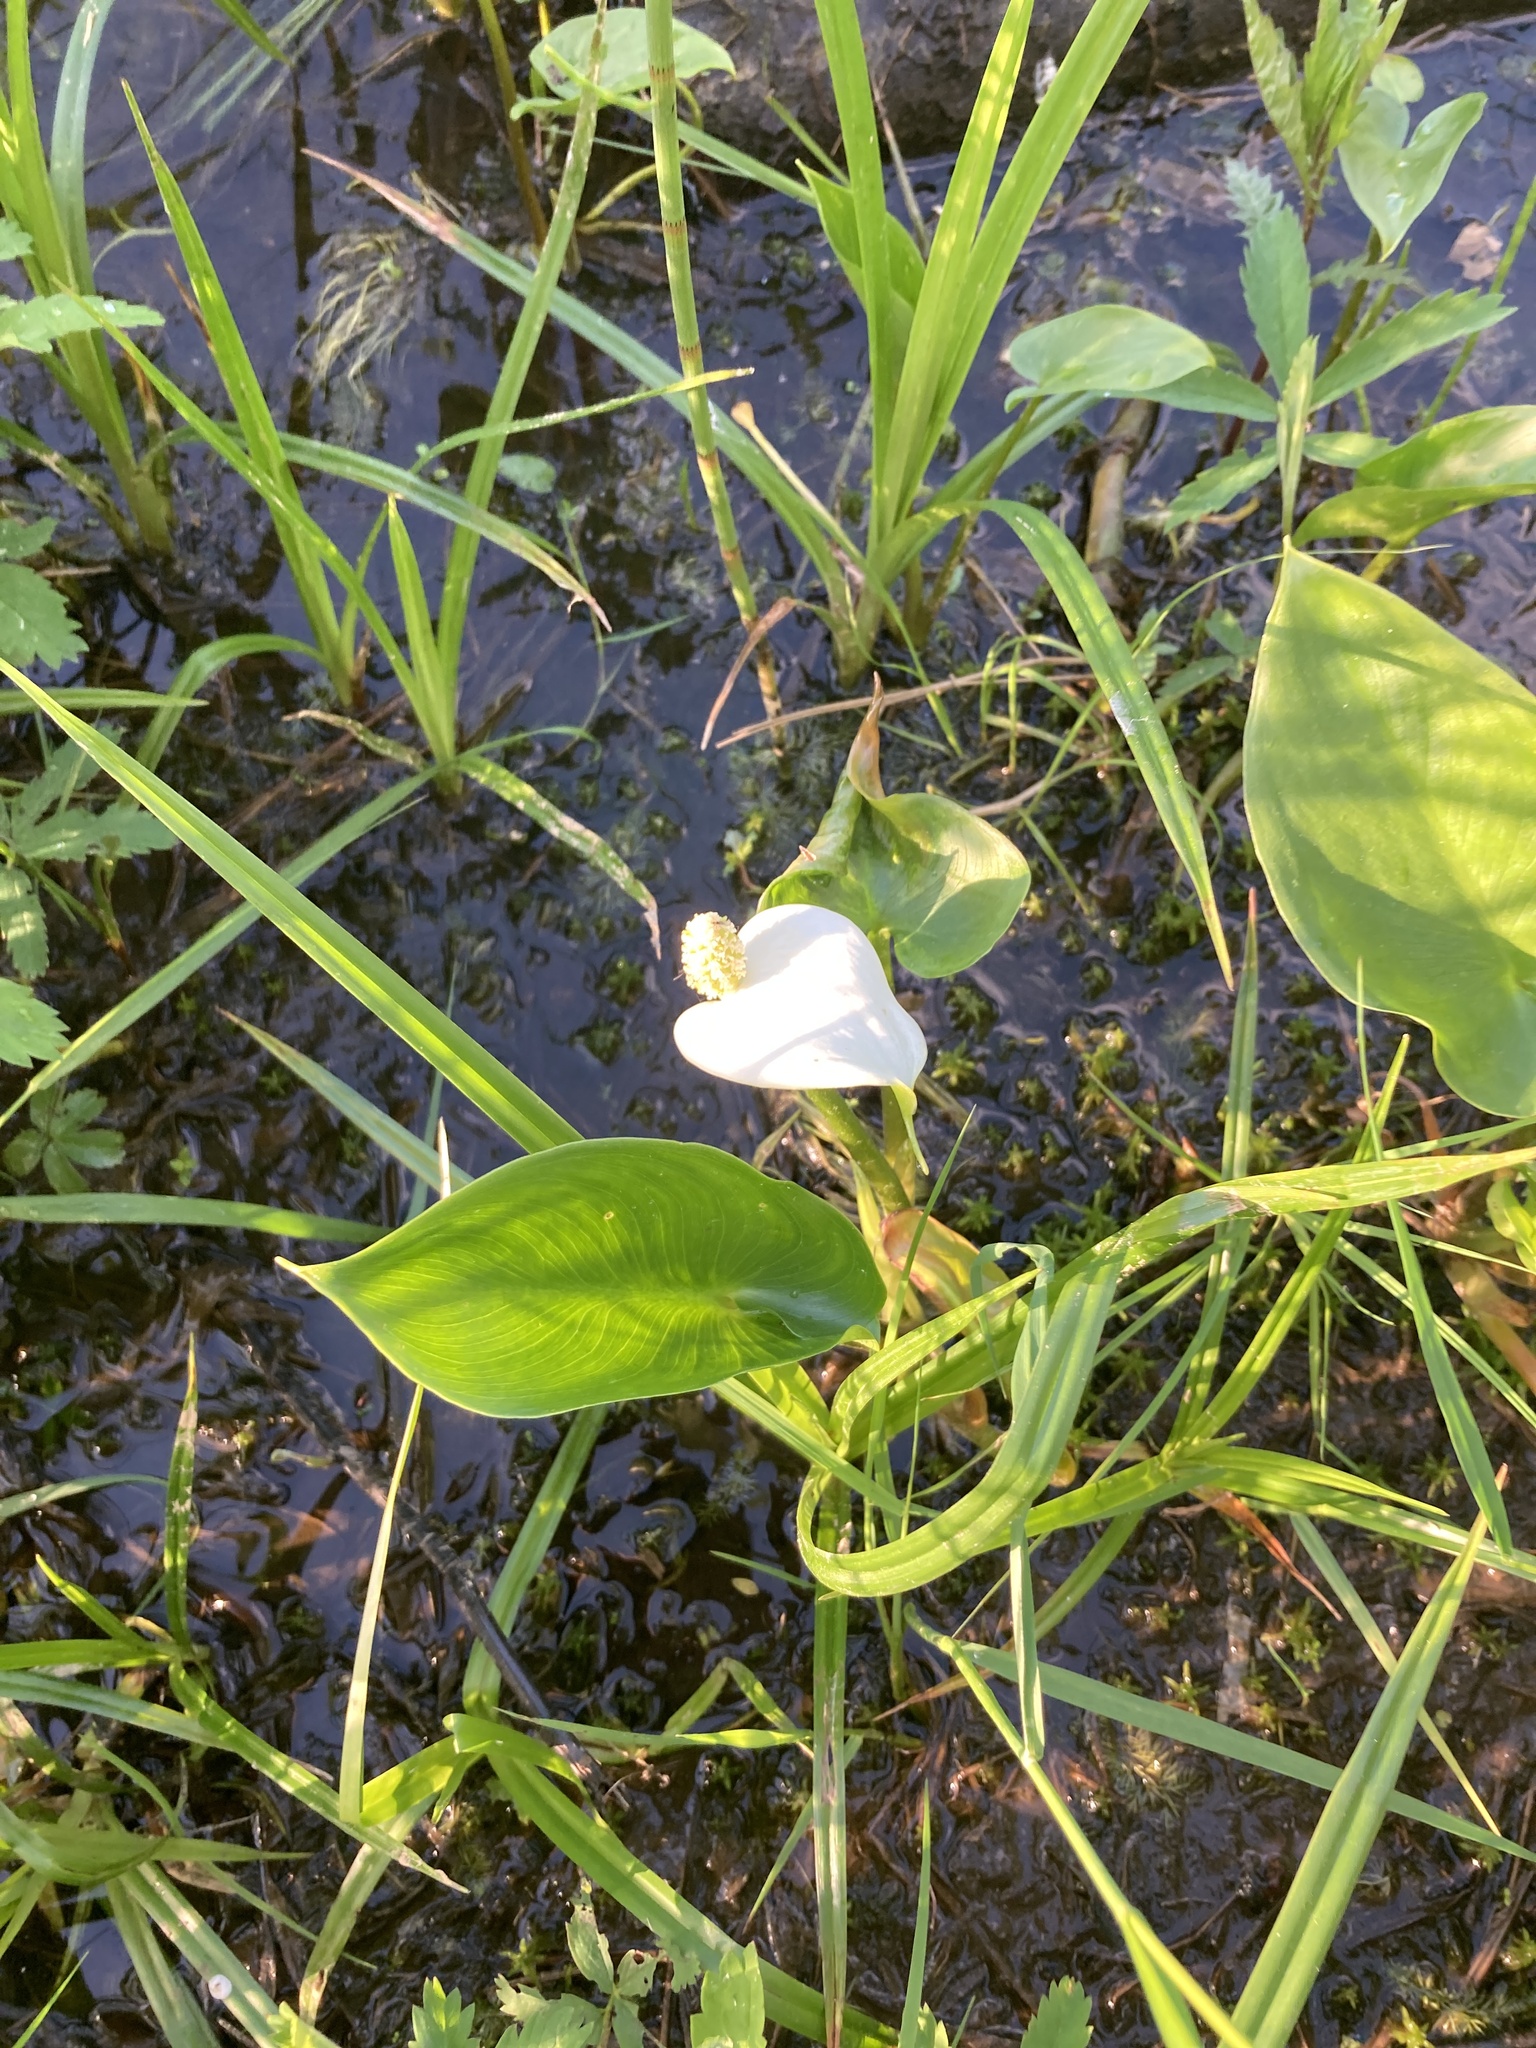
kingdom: Plantae
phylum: Tracheophyta
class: Liliopsida
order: Alismatales
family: Araceae
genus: Calla
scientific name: Calla palustris
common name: Bog arum
